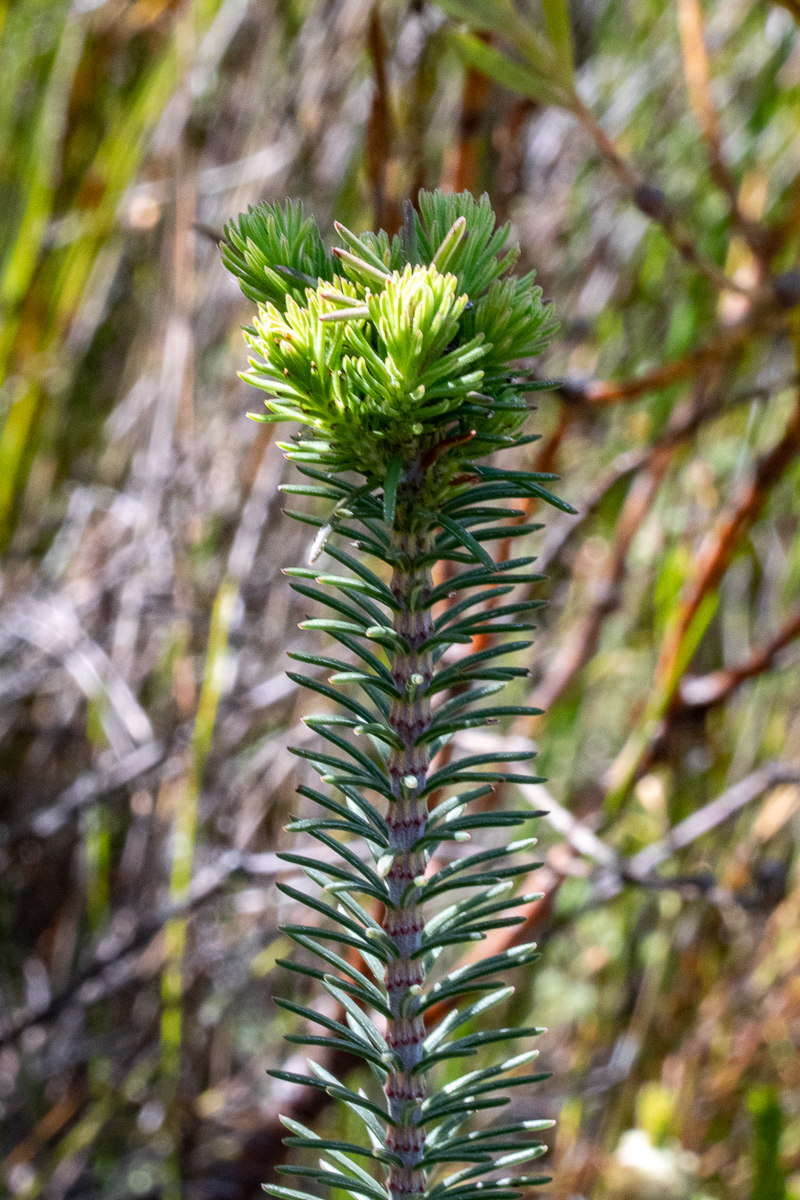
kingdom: Plantae
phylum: Tracheophyta
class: Magnoliopsida
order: Ericales
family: Ericaceae
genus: Erica
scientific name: Erica fascicularis
